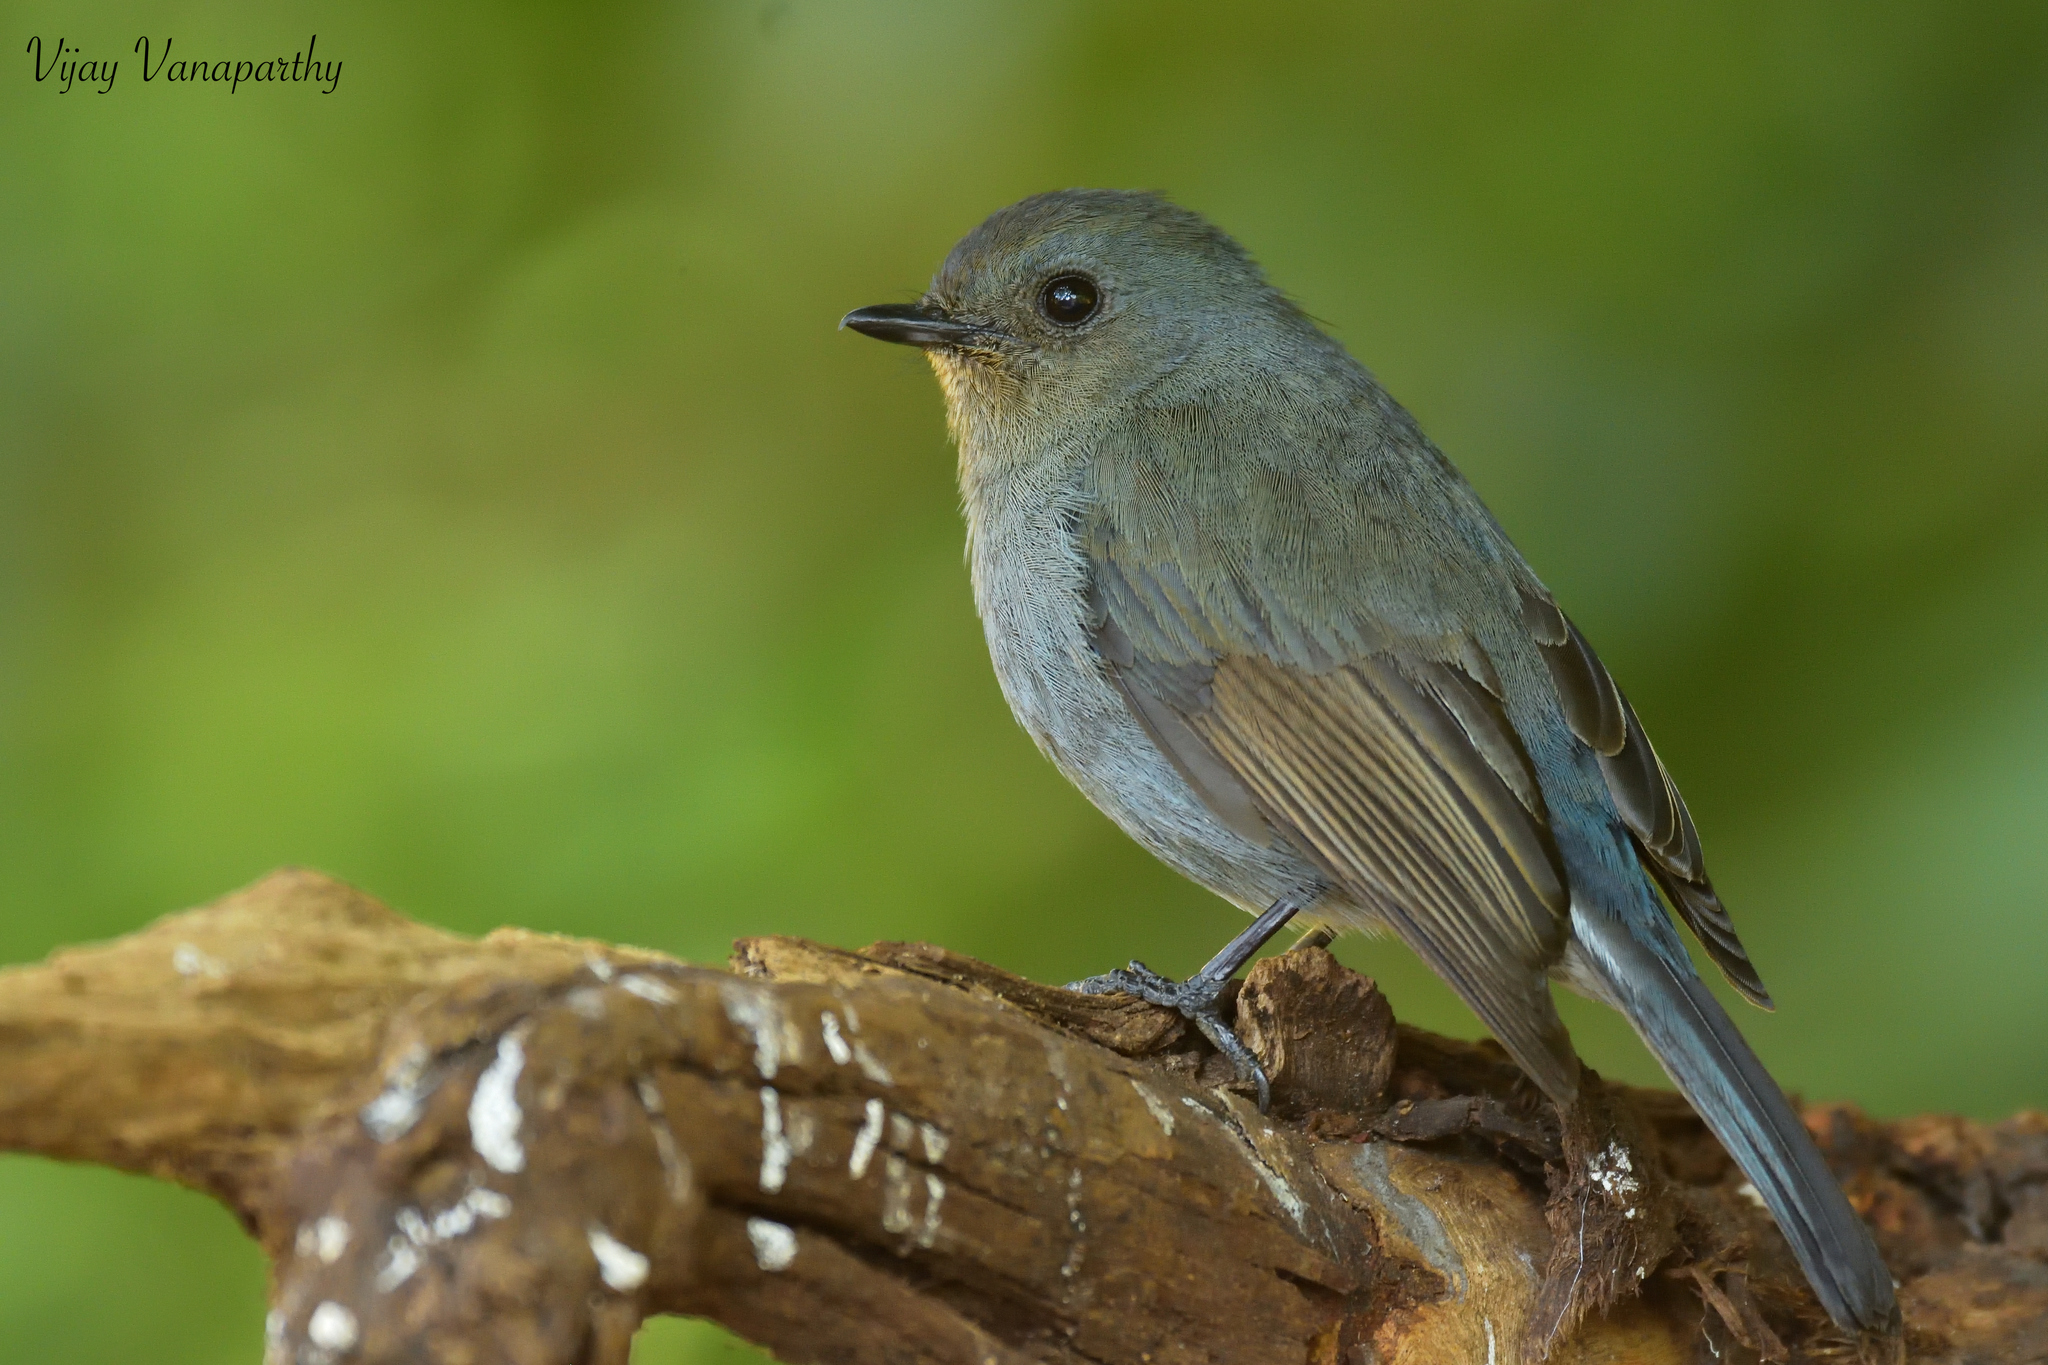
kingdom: Animalia
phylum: Chordata
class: Aves
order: Passeriformes
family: Muscicapidae
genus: Eumyias
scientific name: Eumyias albicaudatus
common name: Nilgiri flycatcher
